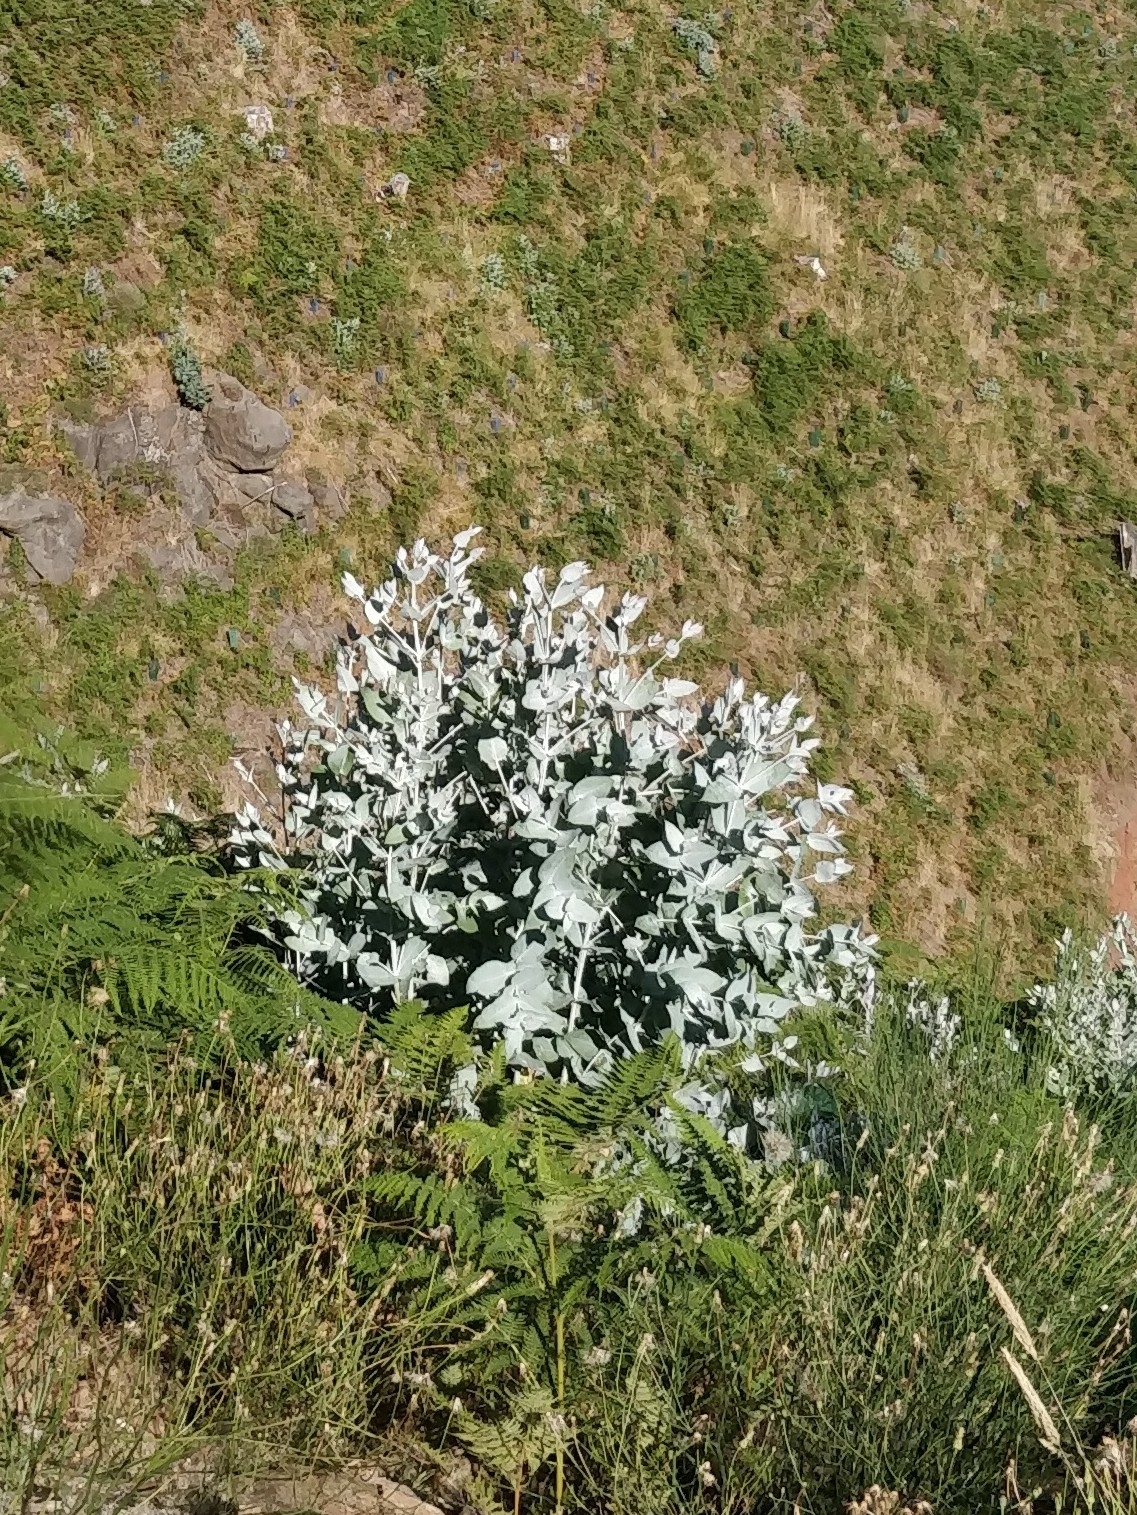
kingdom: Plantae
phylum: Tracheophyta
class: Magnoliopsida
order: Myrtales
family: Myrtaceae
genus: Eucalyptus
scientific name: Eucalyptus globulus
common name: Southern blue-gum
